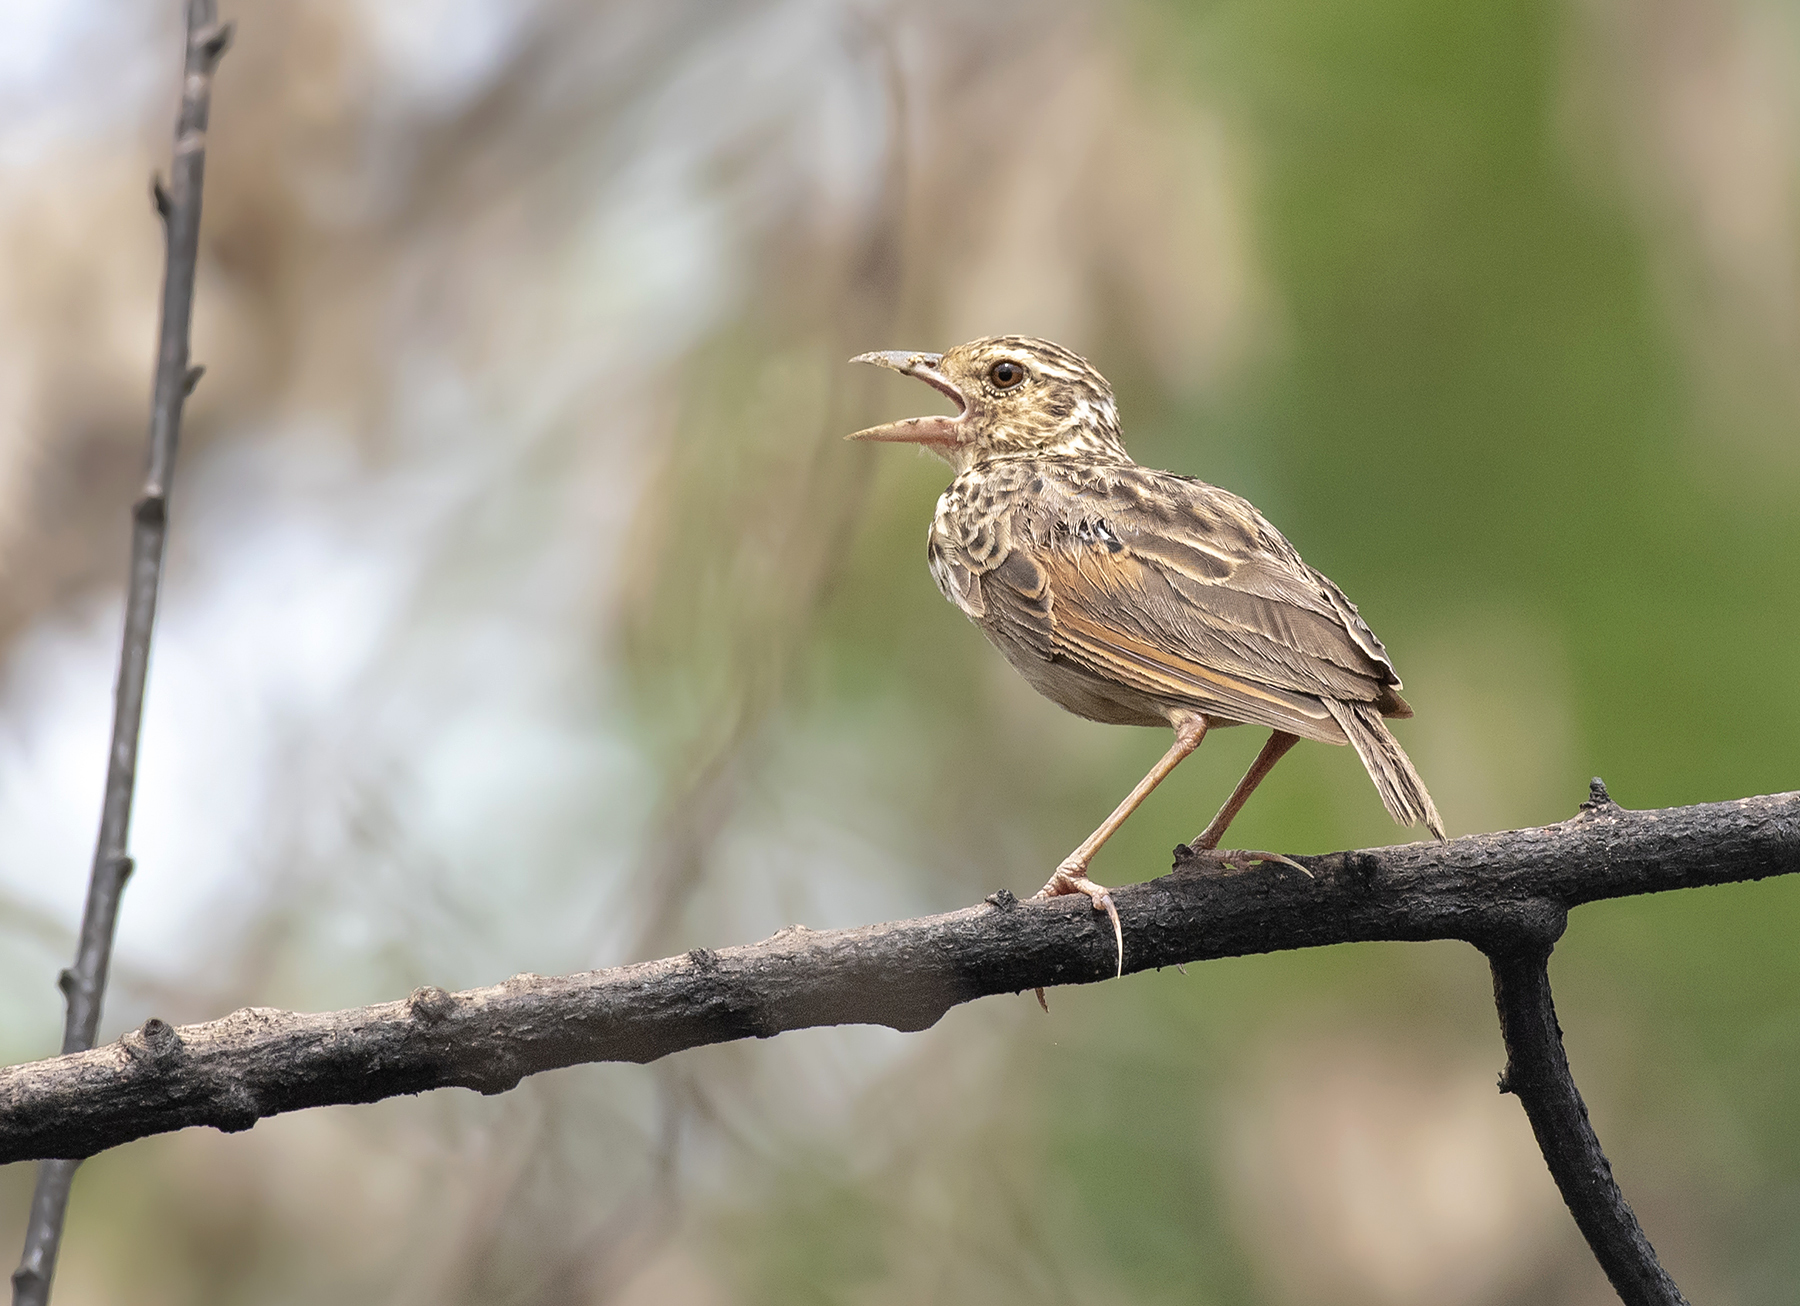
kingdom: Animalia
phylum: Chordata
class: Aves
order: Passeriformes
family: Alaudidae
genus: Mirafra
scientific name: Mirafra affinis
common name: Jerdon's bushlark
